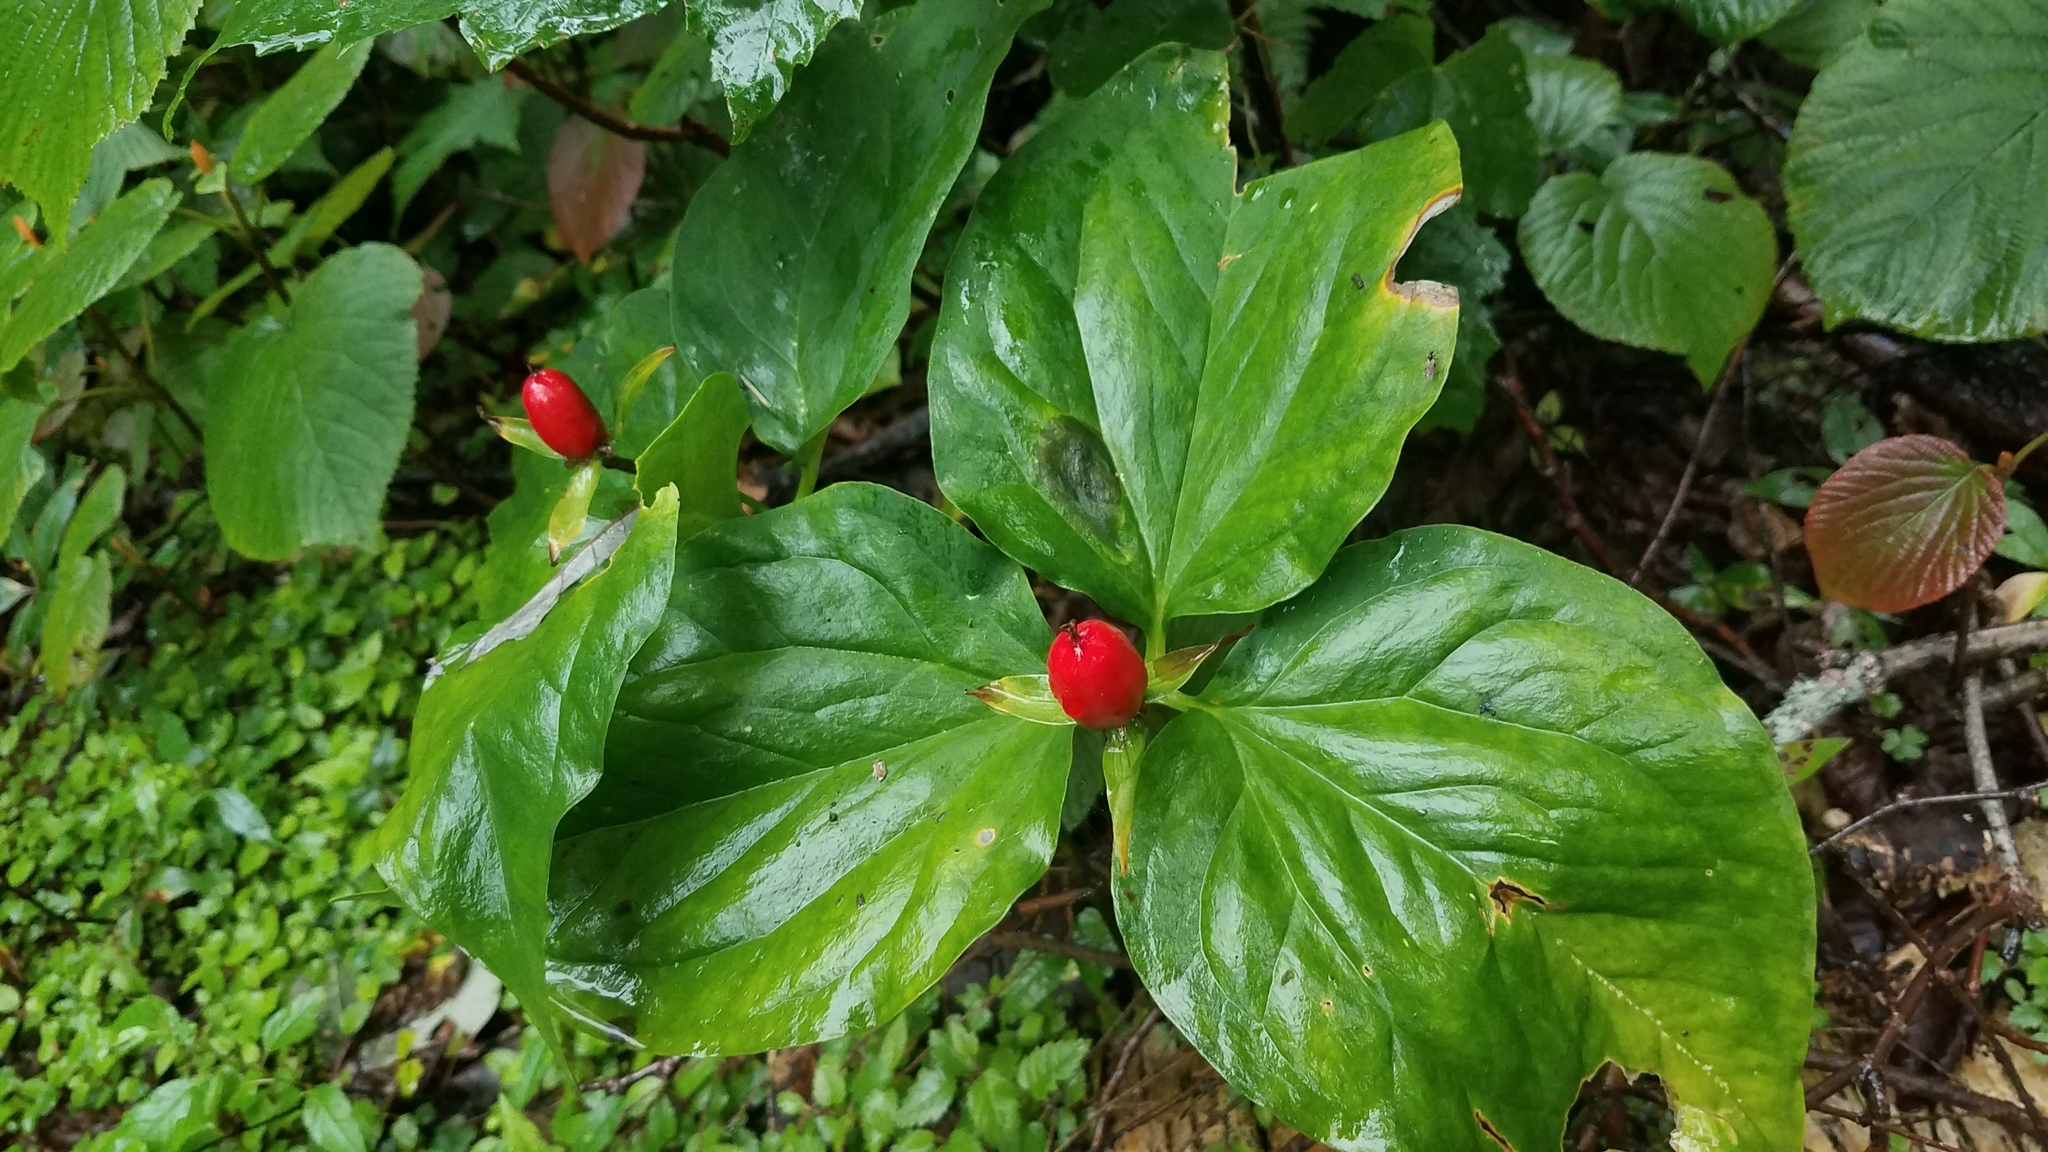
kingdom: Plantae
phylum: Tracheophyta
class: Liliopsida
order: Liliales
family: Melanthiaceae
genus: Trillium
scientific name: Trillium undulatum
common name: Paint trillium
